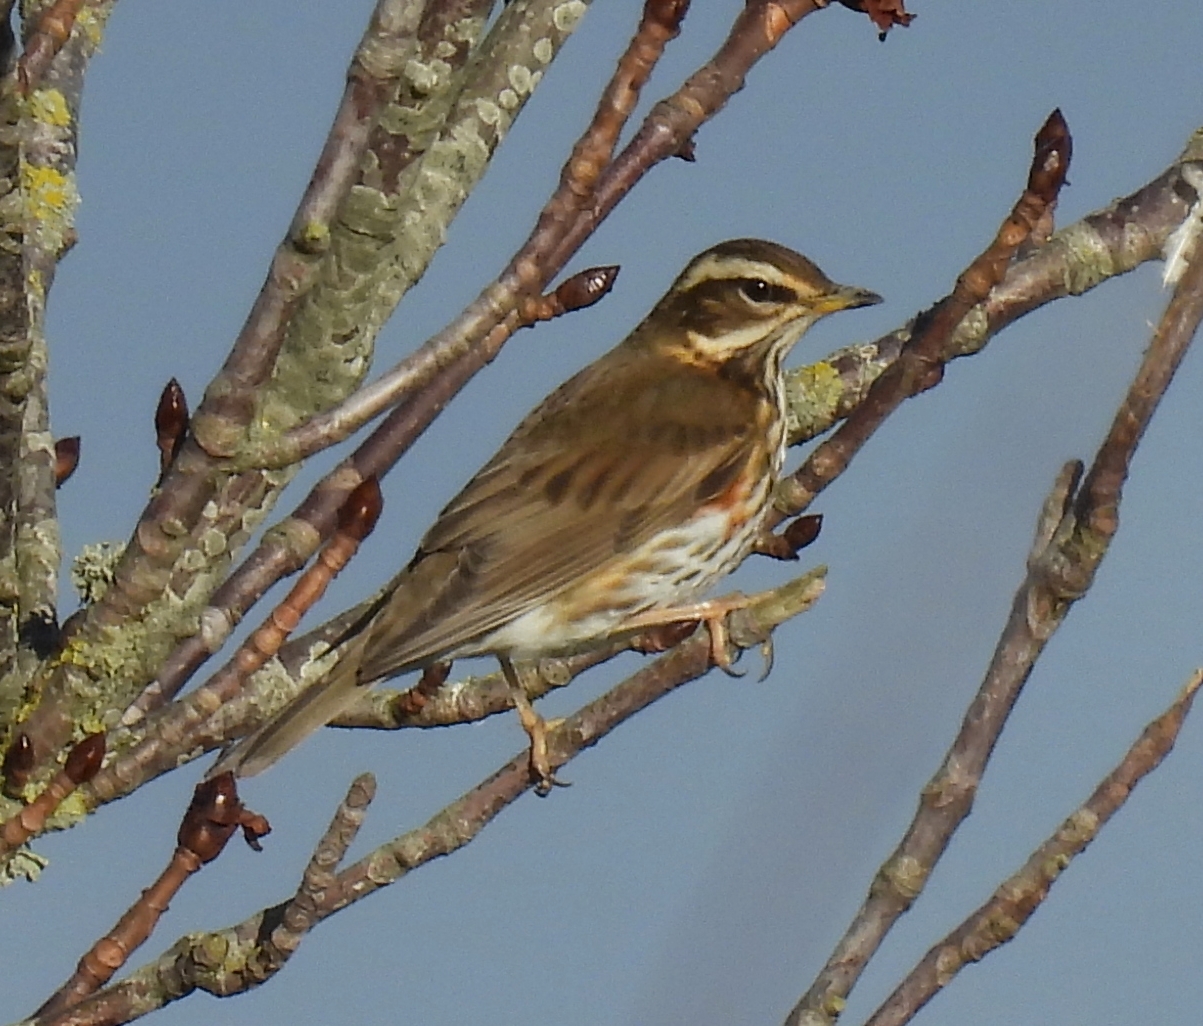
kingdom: Animalia
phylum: Chordata
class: Aves
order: Passeriformes
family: Turdidae
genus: Turdus
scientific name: Turdus iliacus
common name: Redwing
